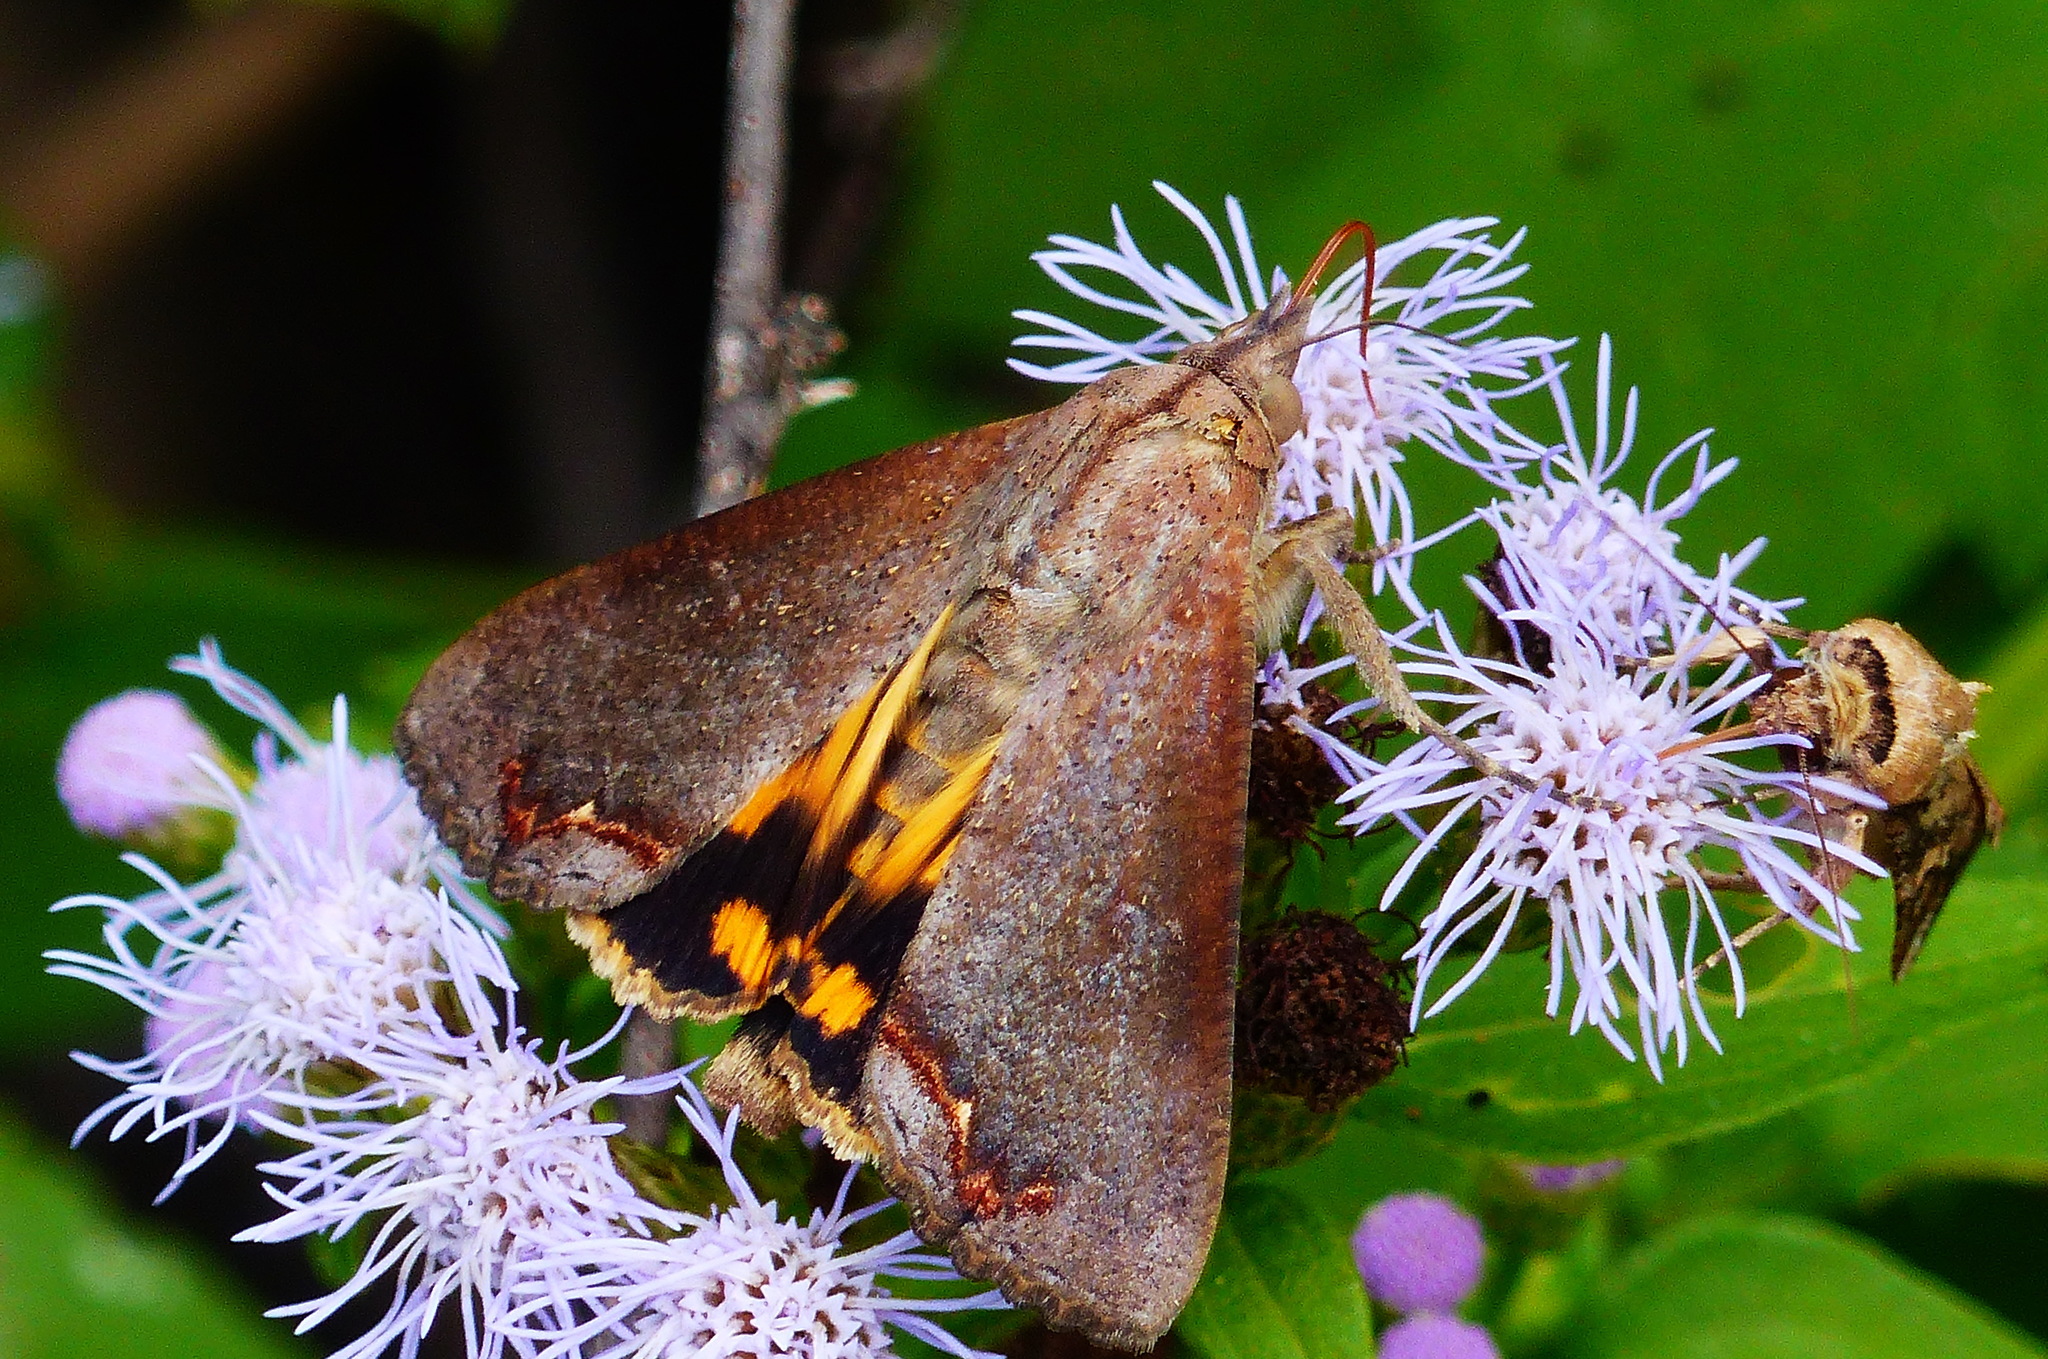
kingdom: Animalia
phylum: Arthropoda
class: Insecta
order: Lepidoptera
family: Erebidae
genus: Hypocala
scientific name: Hypocala andremona
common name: Hypocala moth
